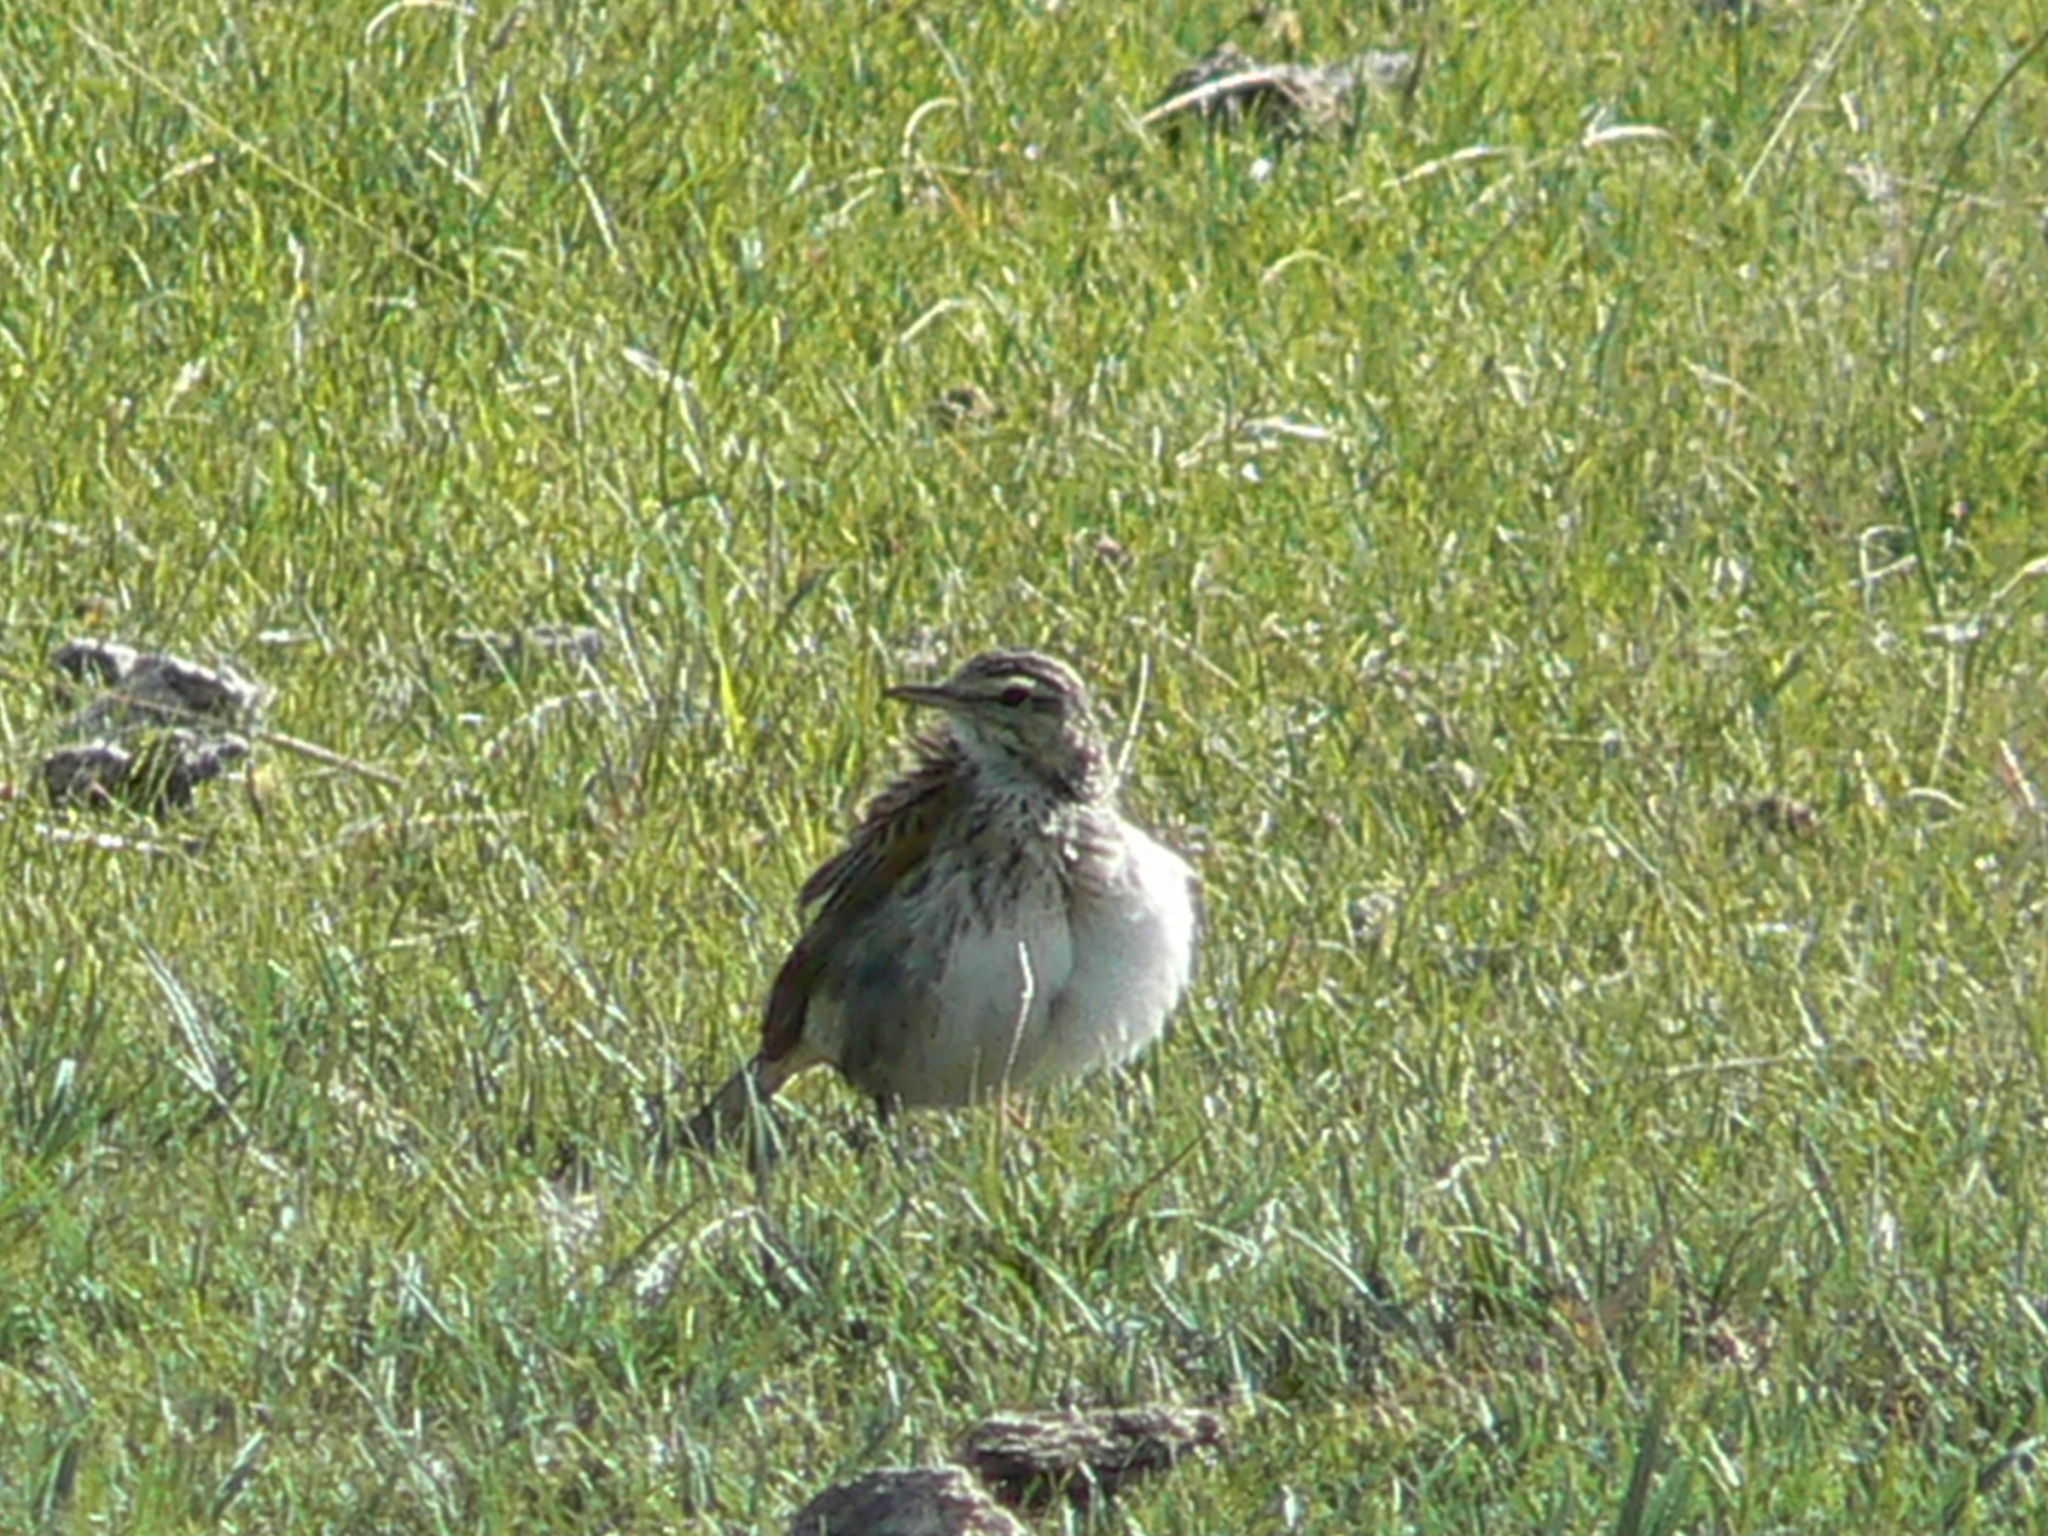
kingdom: Animalia
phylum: Chordata
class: Aves
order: Passeriformes
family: Motacillidae
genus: Anthus
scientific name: Anthus australis
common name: Australian pipit
